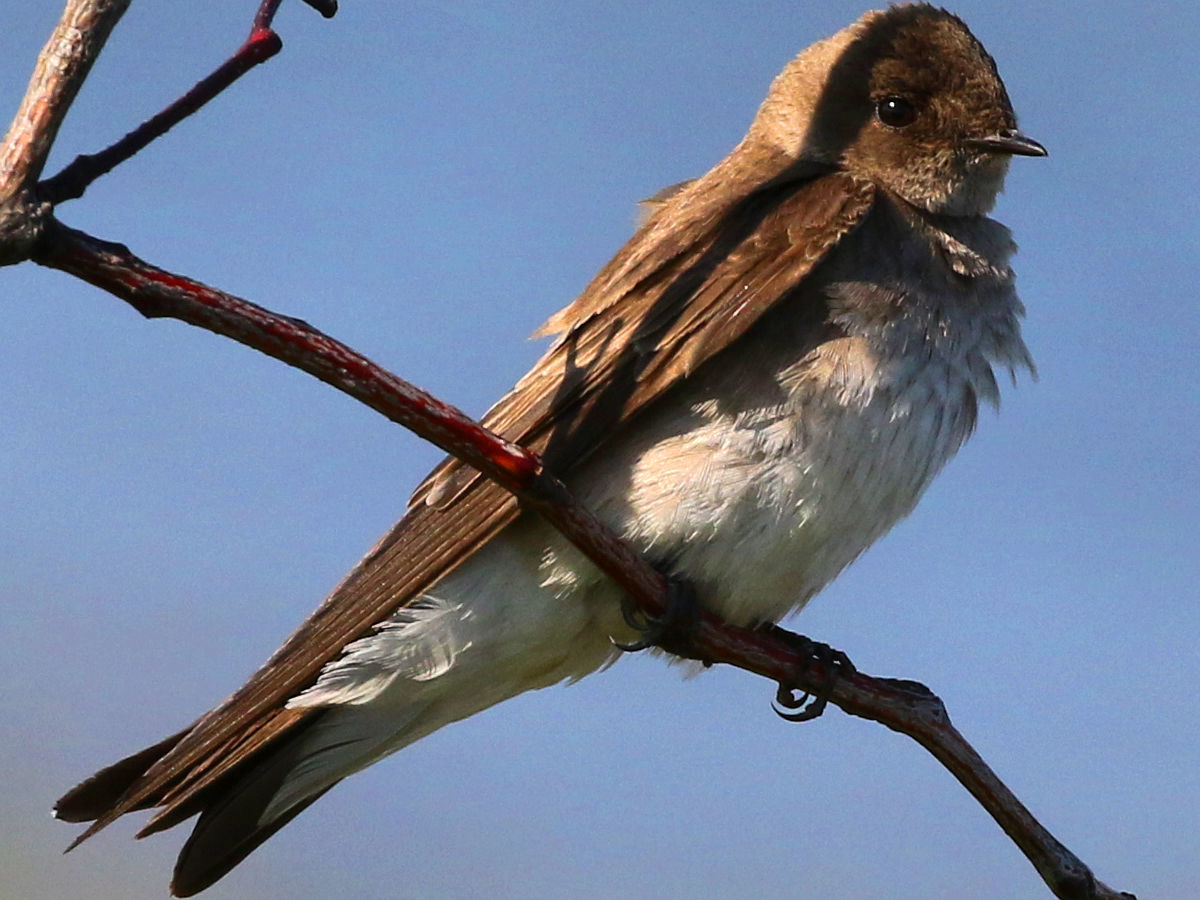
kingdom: Animalia
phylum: Chordata
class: Aves
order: Passeriformes
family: Hirundinidae
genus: Stelgidopteryx
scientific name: Stelgidopteryx serripennis
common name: Northern rough-winged swallow
